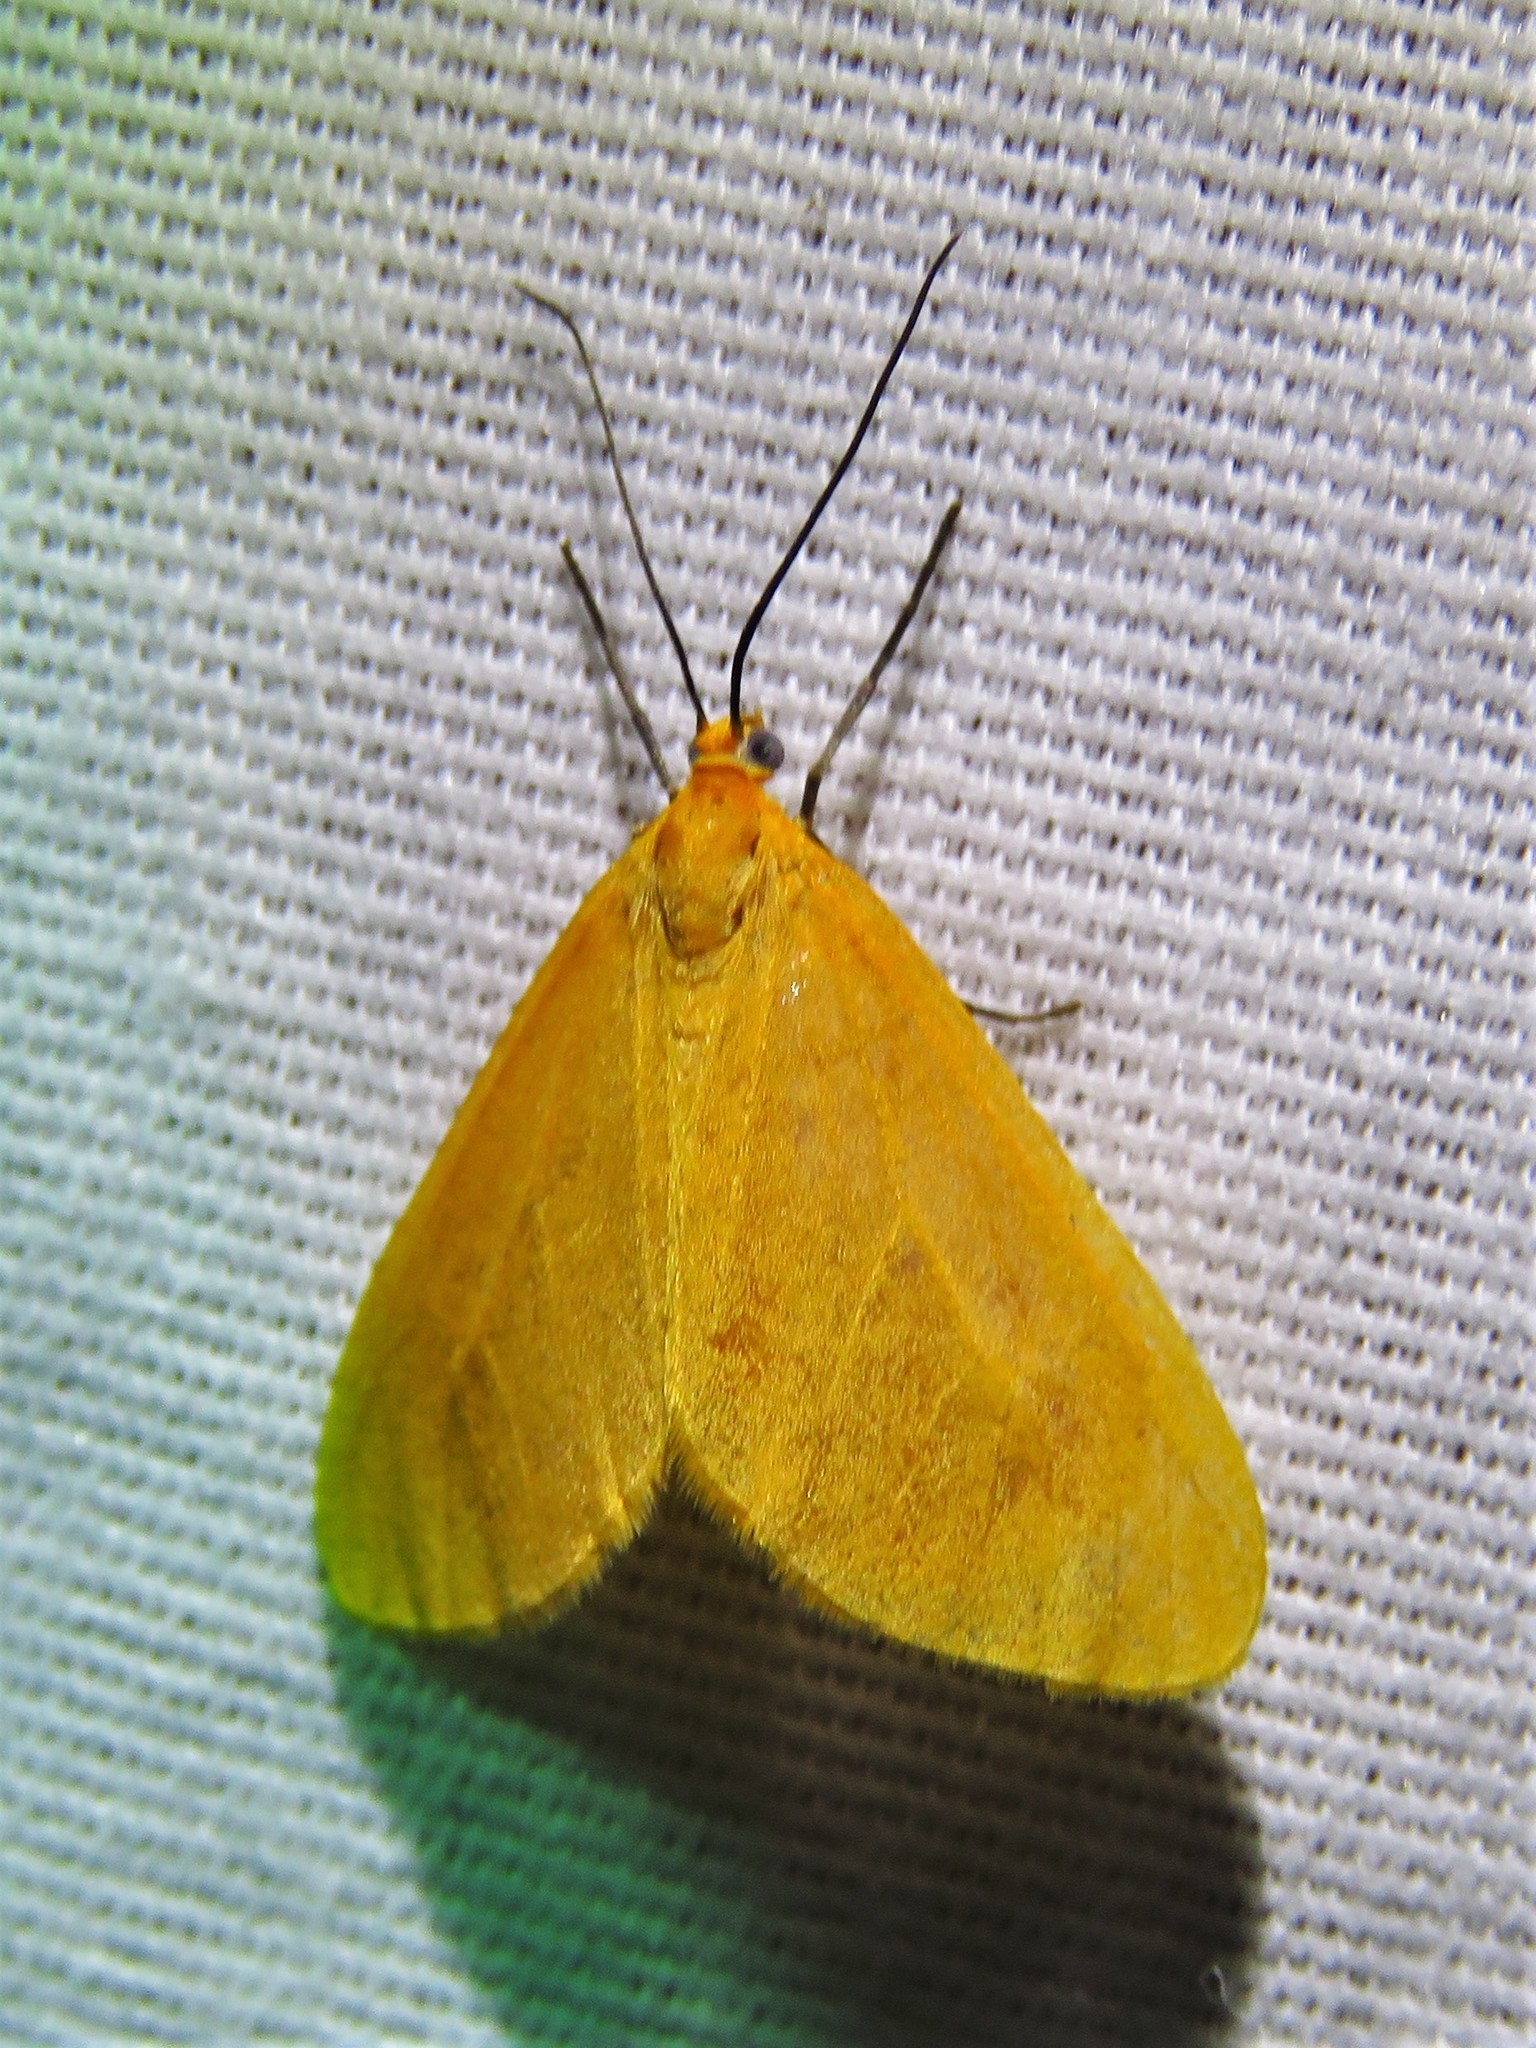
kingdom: Animalia
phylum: Arthropoda
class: Insecta
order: Lepidoptera
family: Geometridae
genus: Eubaphe
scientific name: Eubaphe unicolor
